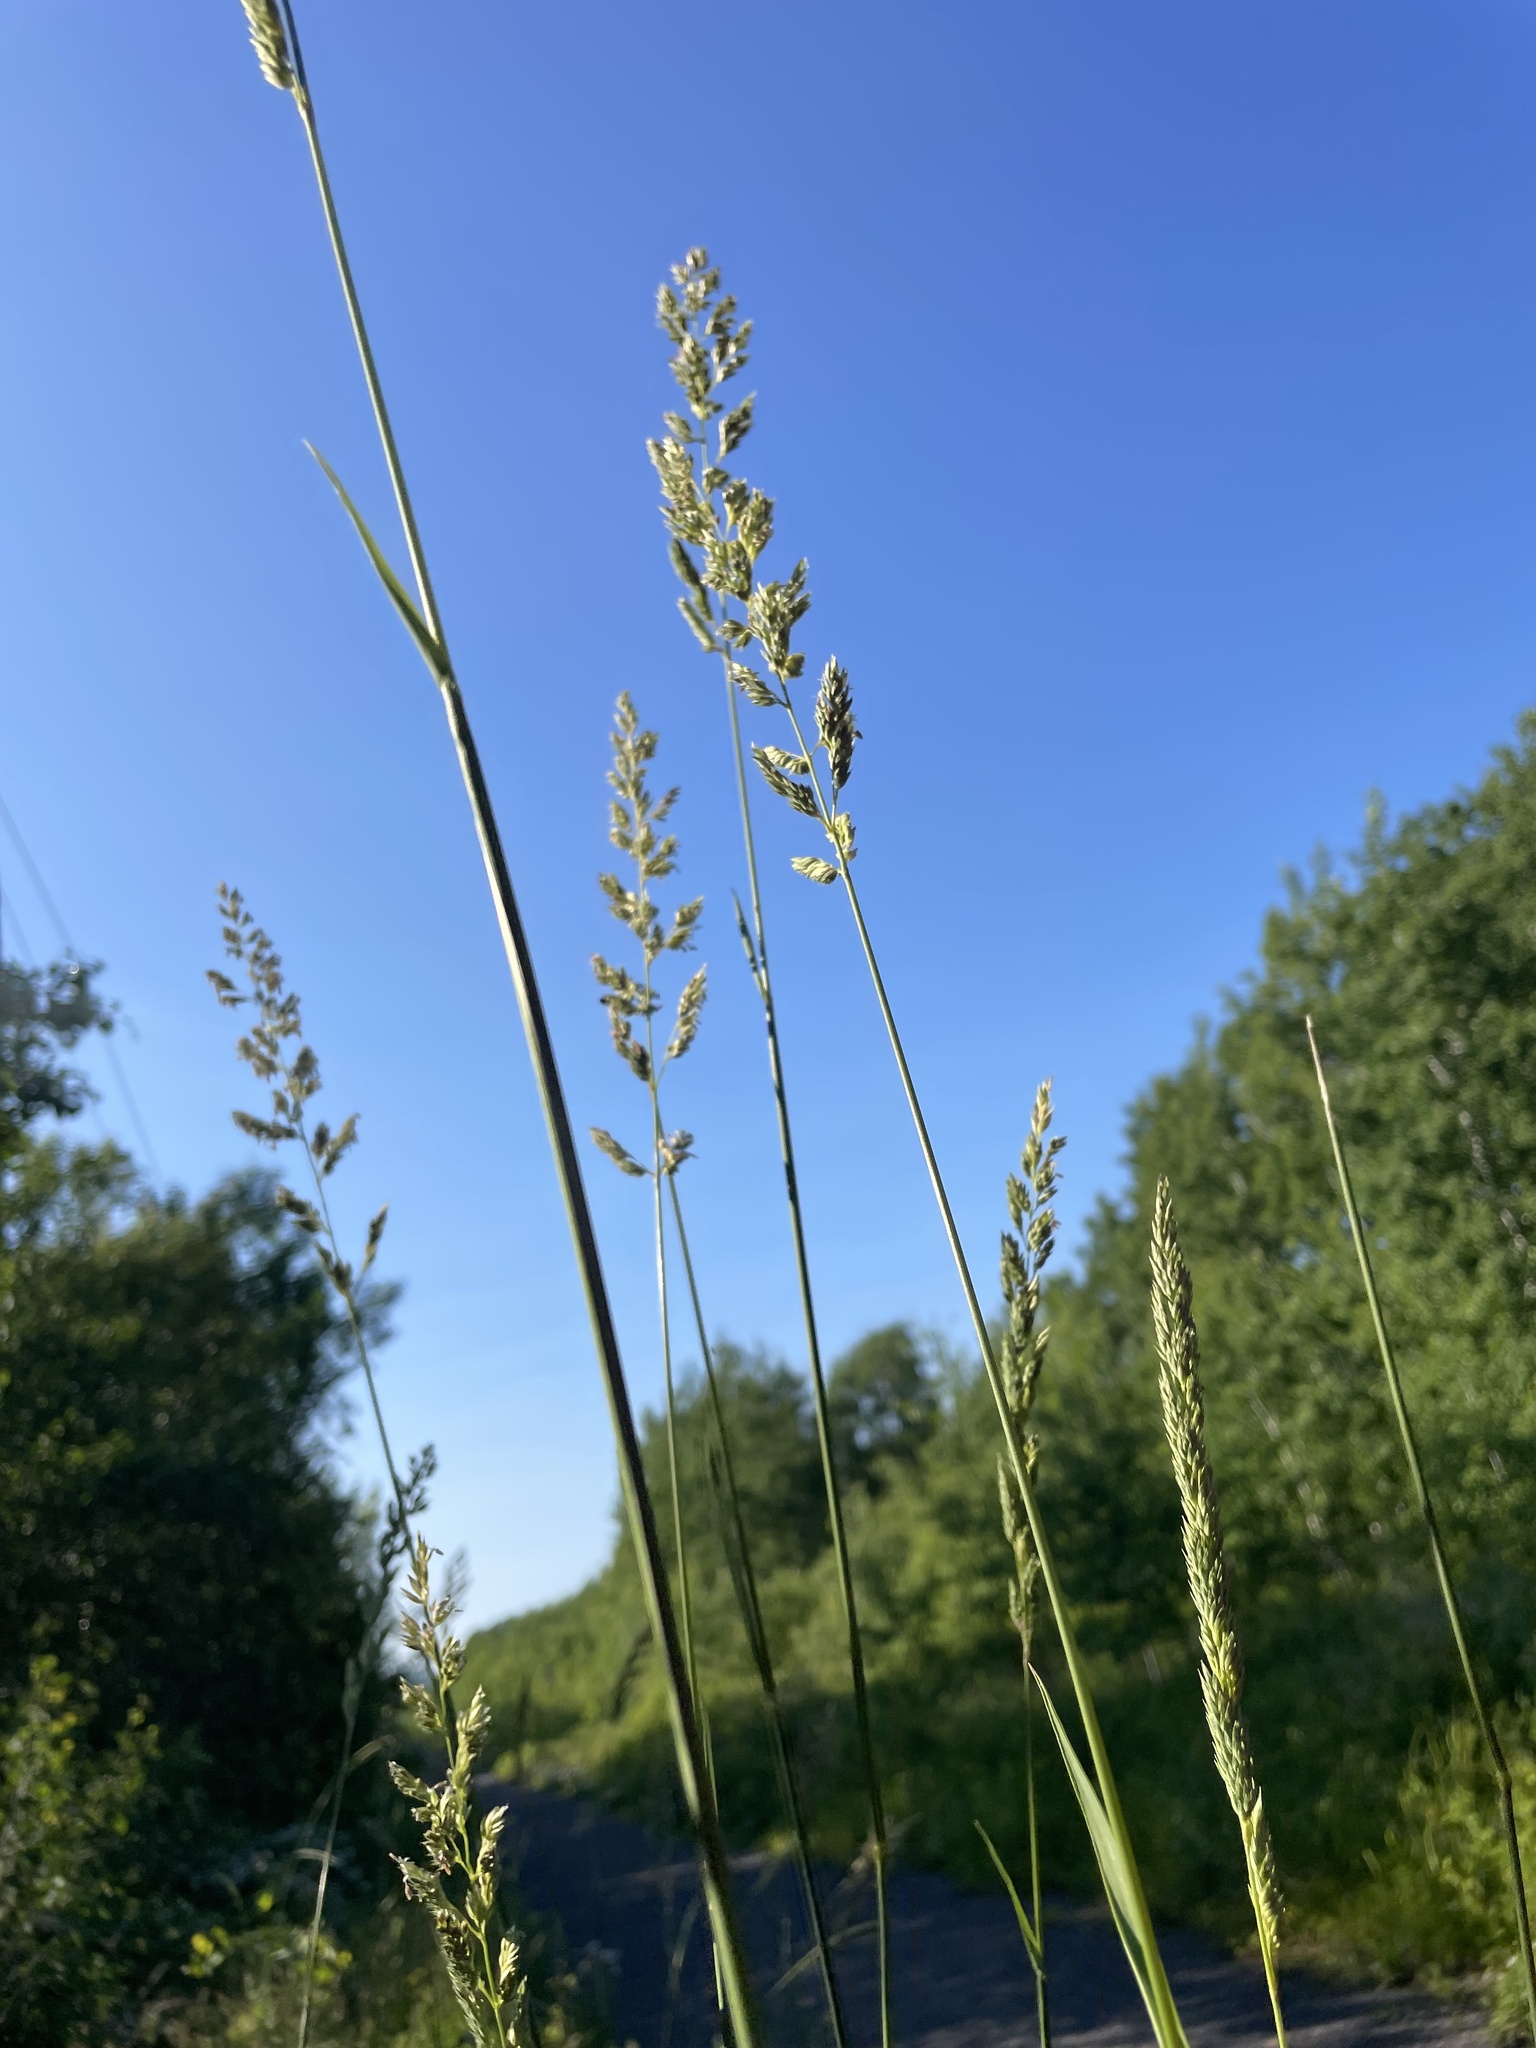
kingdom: Plantae
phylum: Tracheophyta
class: Liliopsida
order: Poales
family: Poaceae
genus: Phalaris
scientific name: Phalaris arundinacea
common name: Reed canary-grass
